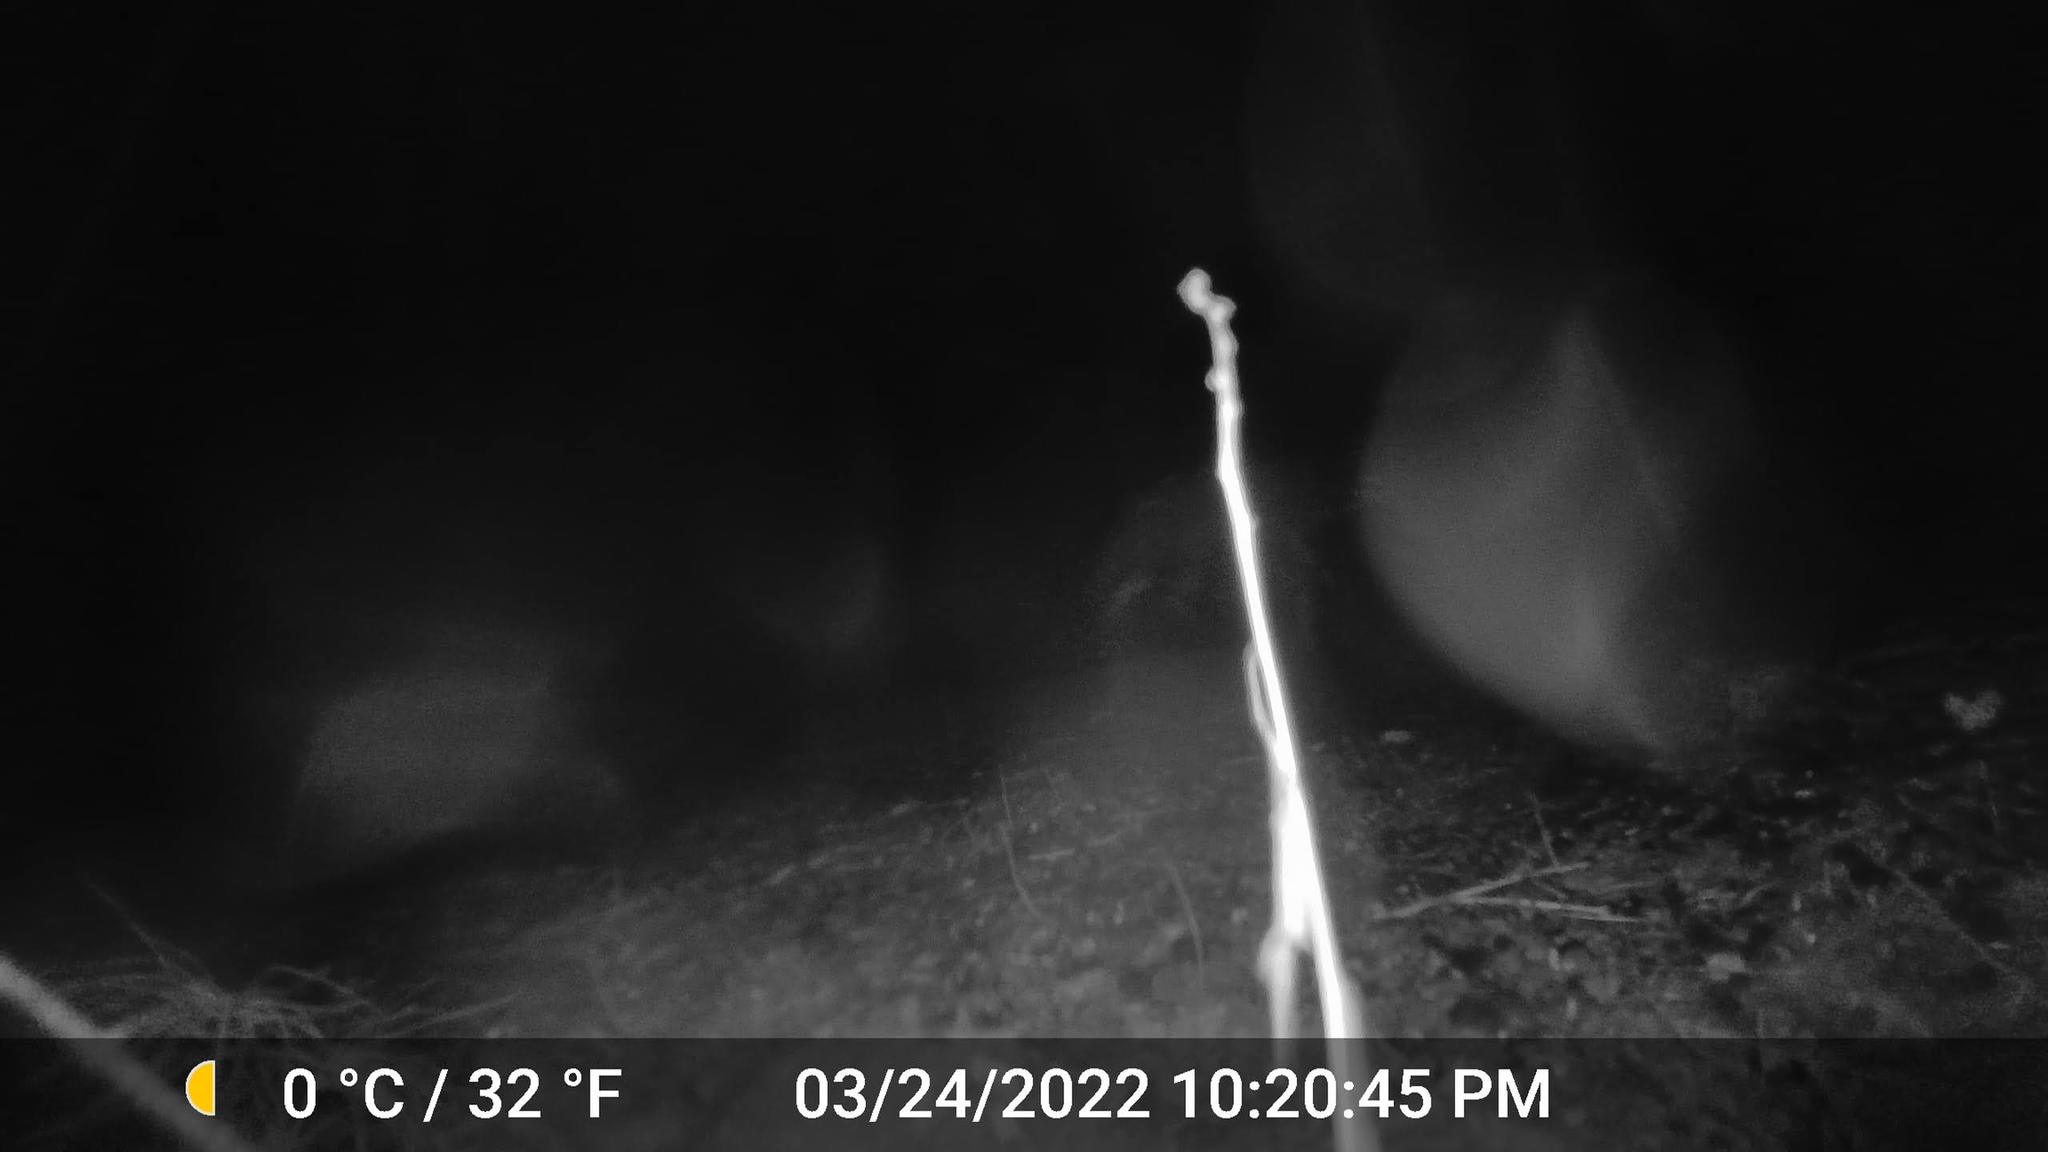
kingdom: Animalia
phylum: Chordata
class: Mammalia
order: Carnivora
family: Canidae
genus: Canis
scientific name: Canis latrans
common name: Coyote
